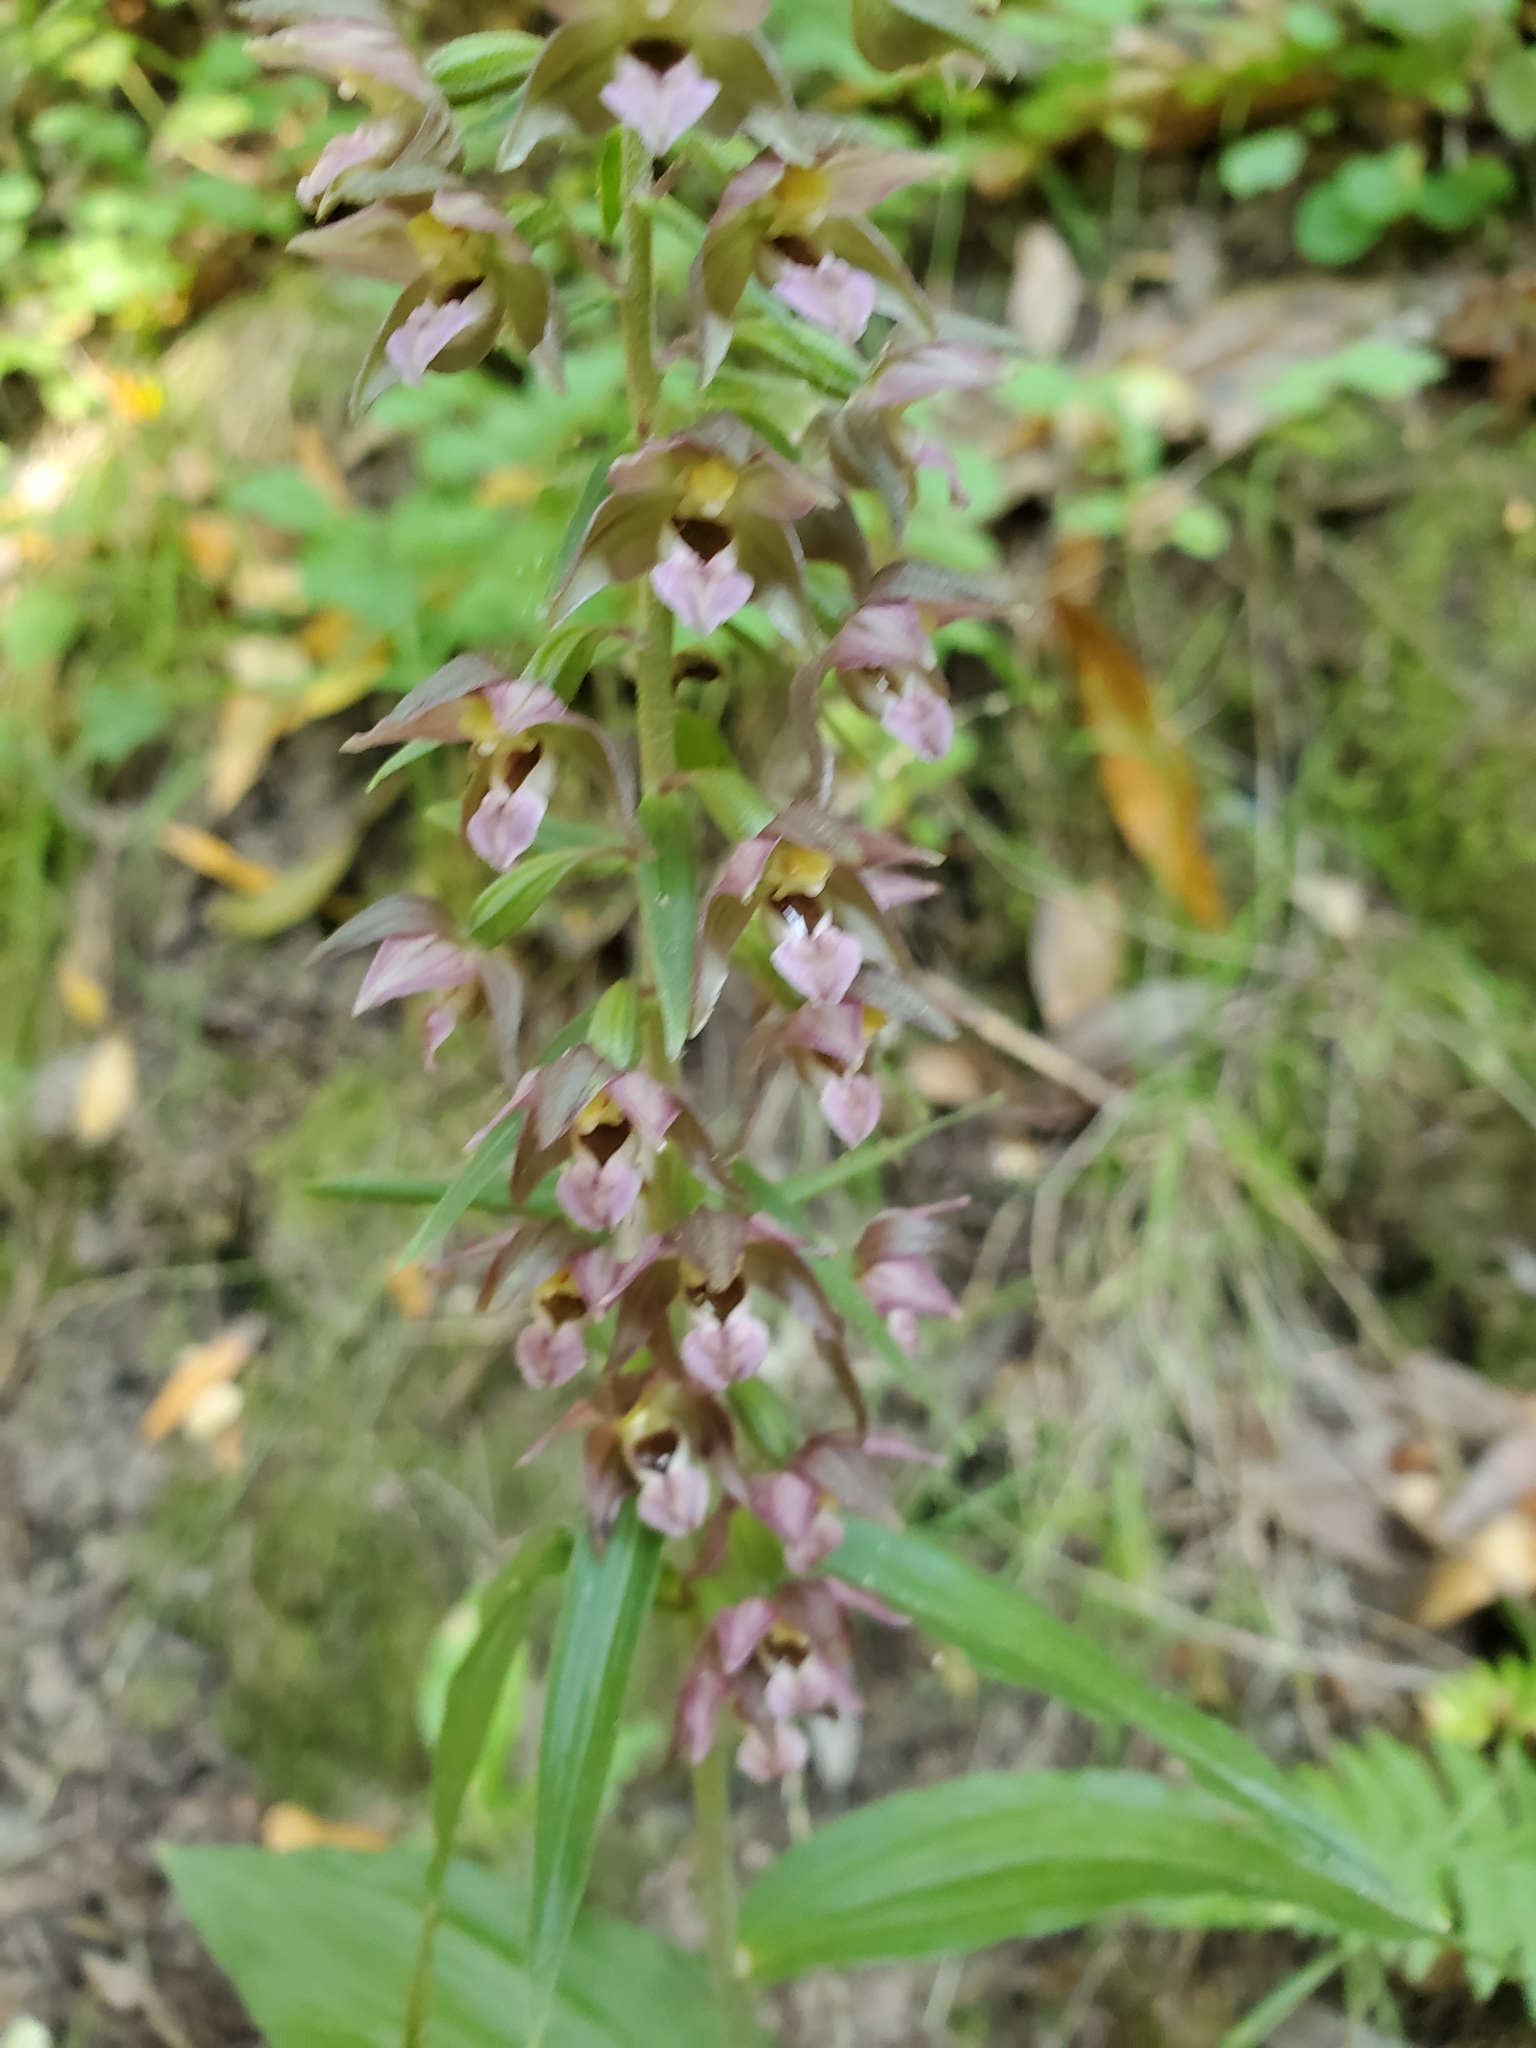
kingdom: Plantae
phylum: Tracheophyta
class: Liliopsida
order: Asparagales
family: Orchidaceae
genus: Epipactis
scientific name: Epipactis helleborine
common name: Broad-leaved helleborine
